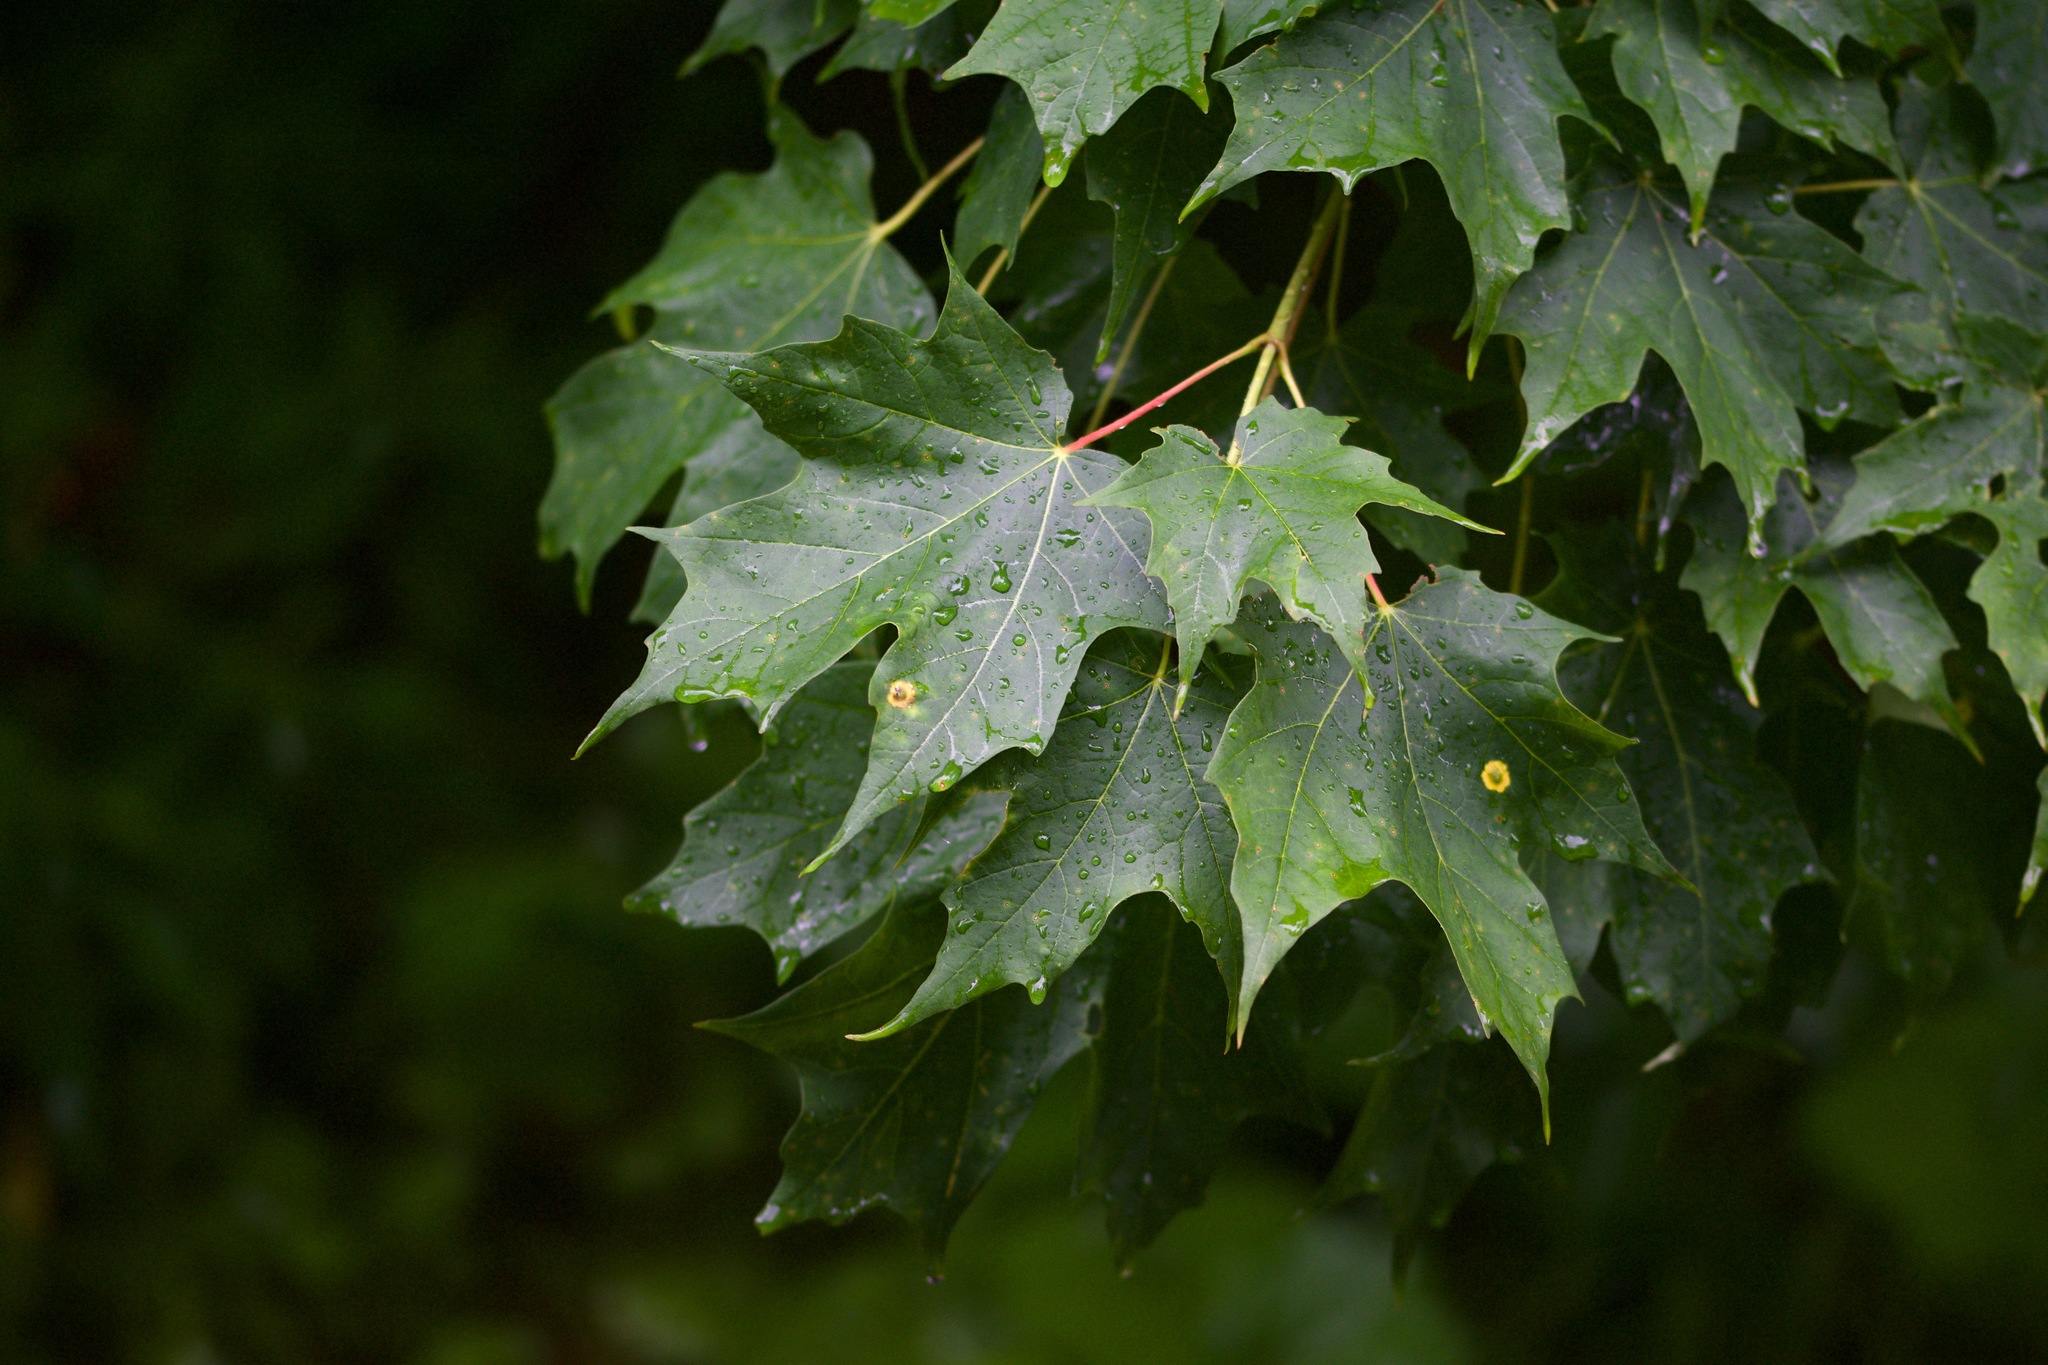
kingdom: Plantae
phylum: Tracheophyta
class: Magnoliopsida
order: Sapindales
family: Sapindaceae
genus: Acer
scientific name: Acer saccharum
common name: Sugar maple
